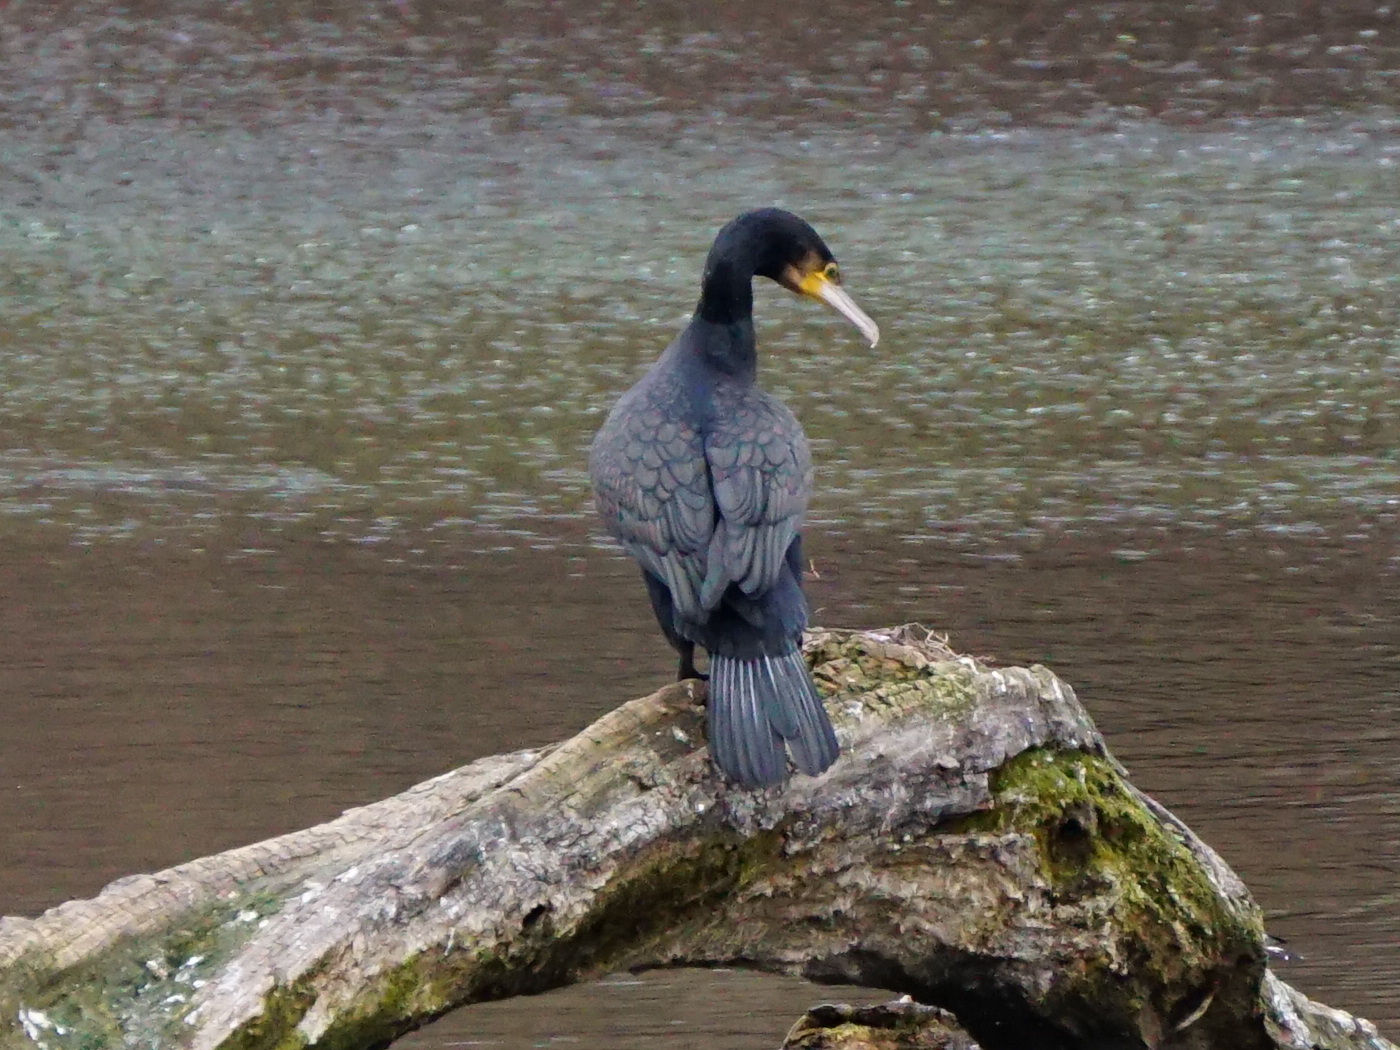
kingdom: Animalia
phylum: Chordata
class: Aves
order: Suliformes
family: Phalacrocoracidae
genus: Phalacrocorax
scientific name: Phalacrocorax carbo
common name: Great cormorant
